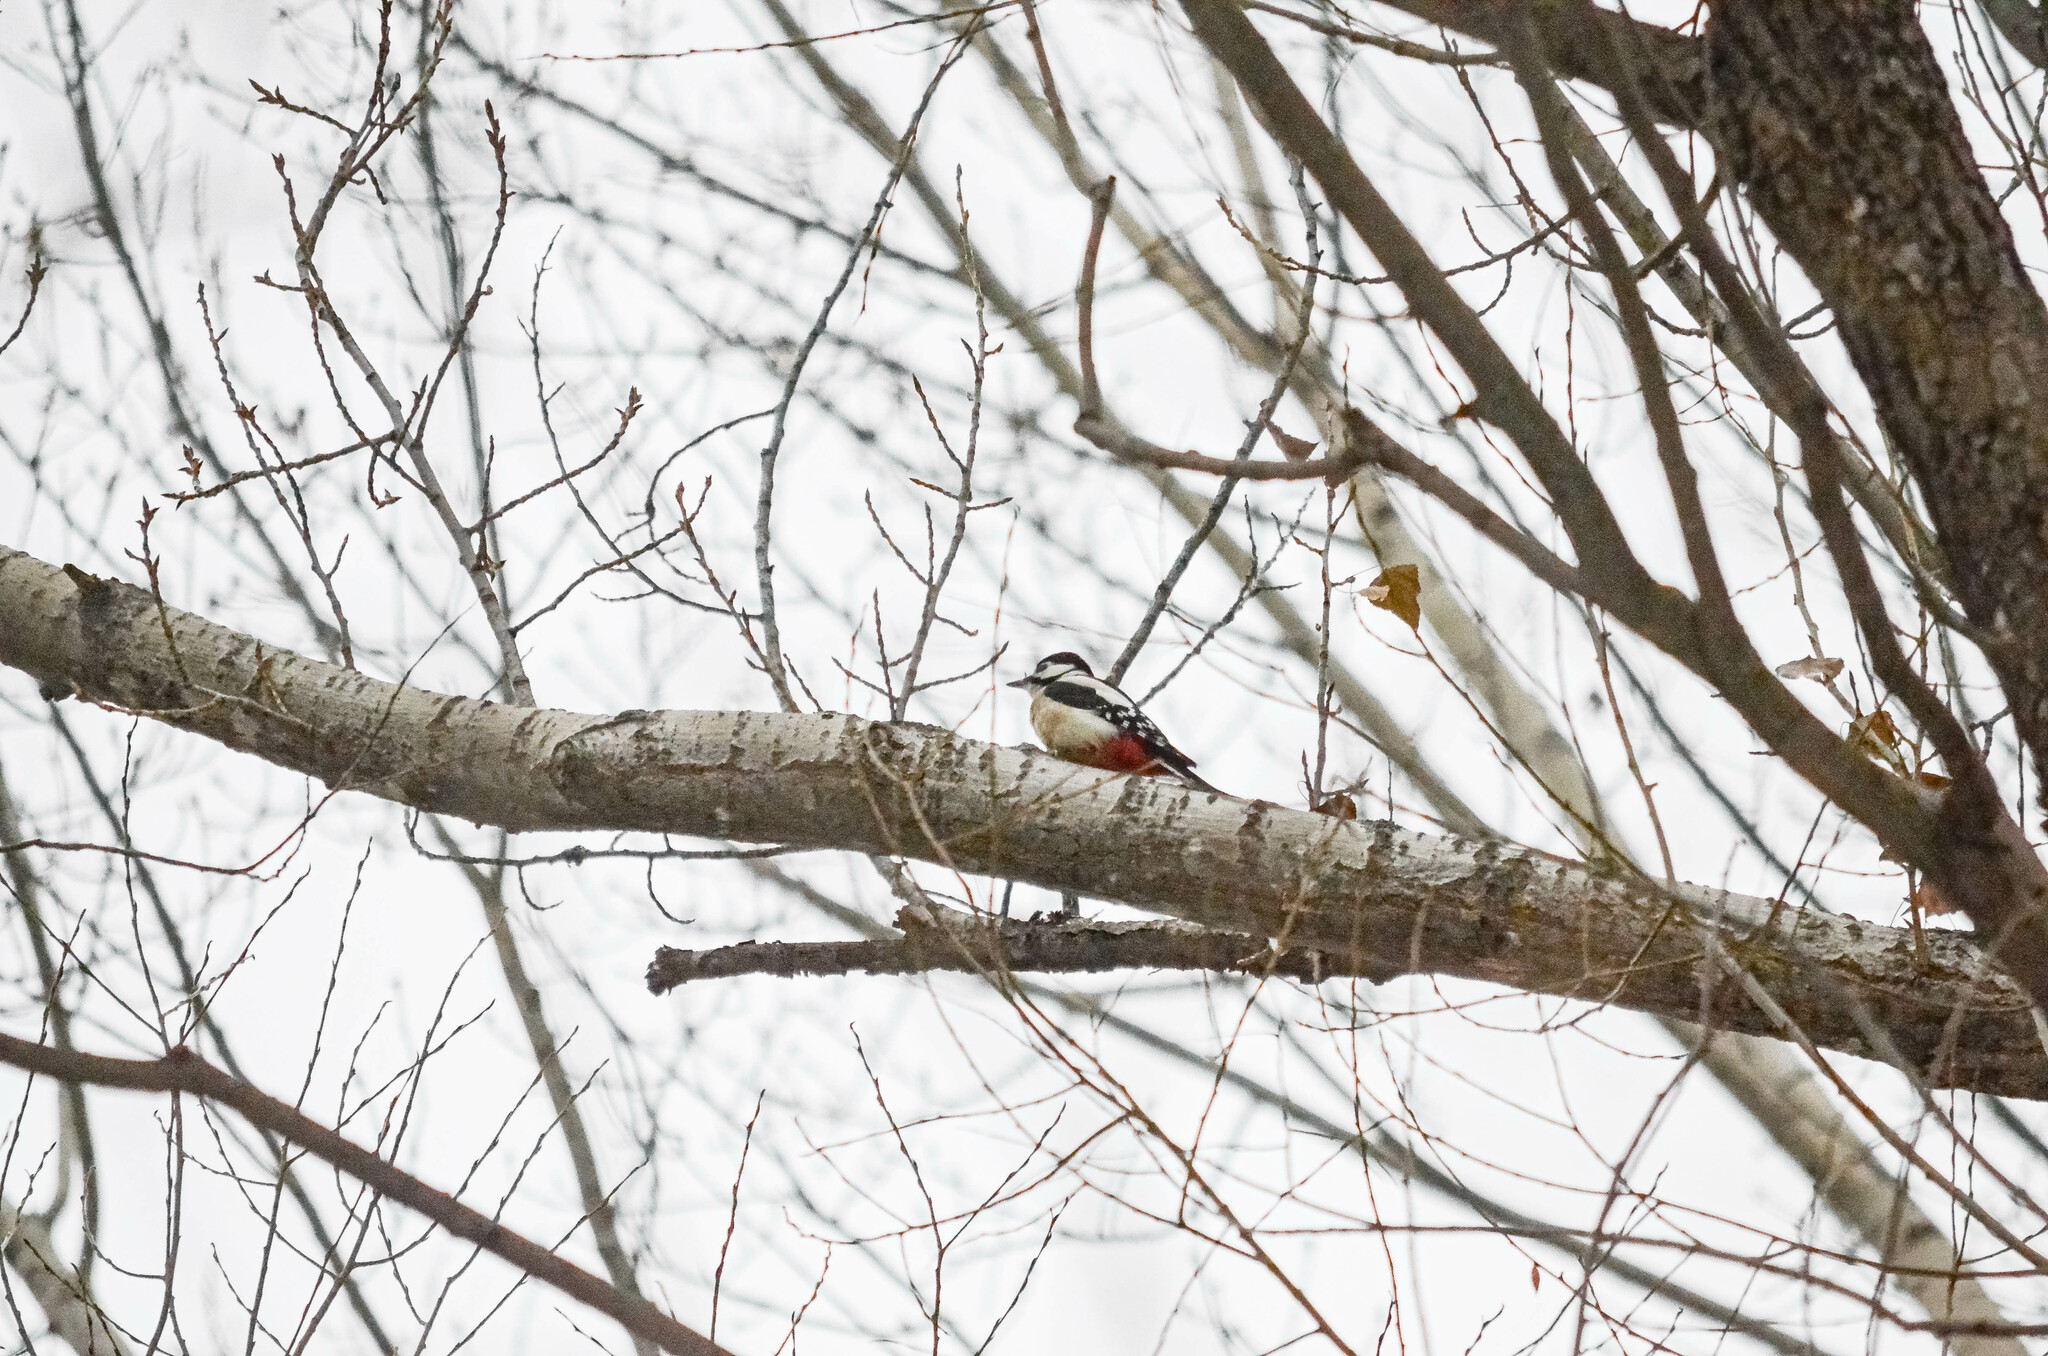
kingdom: Animalia
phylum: Chordata
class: Aves
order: Piciformes
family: Picidae
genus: Dendrocopos
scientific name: Dendrocopos major
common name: Great spotted woodpecker
